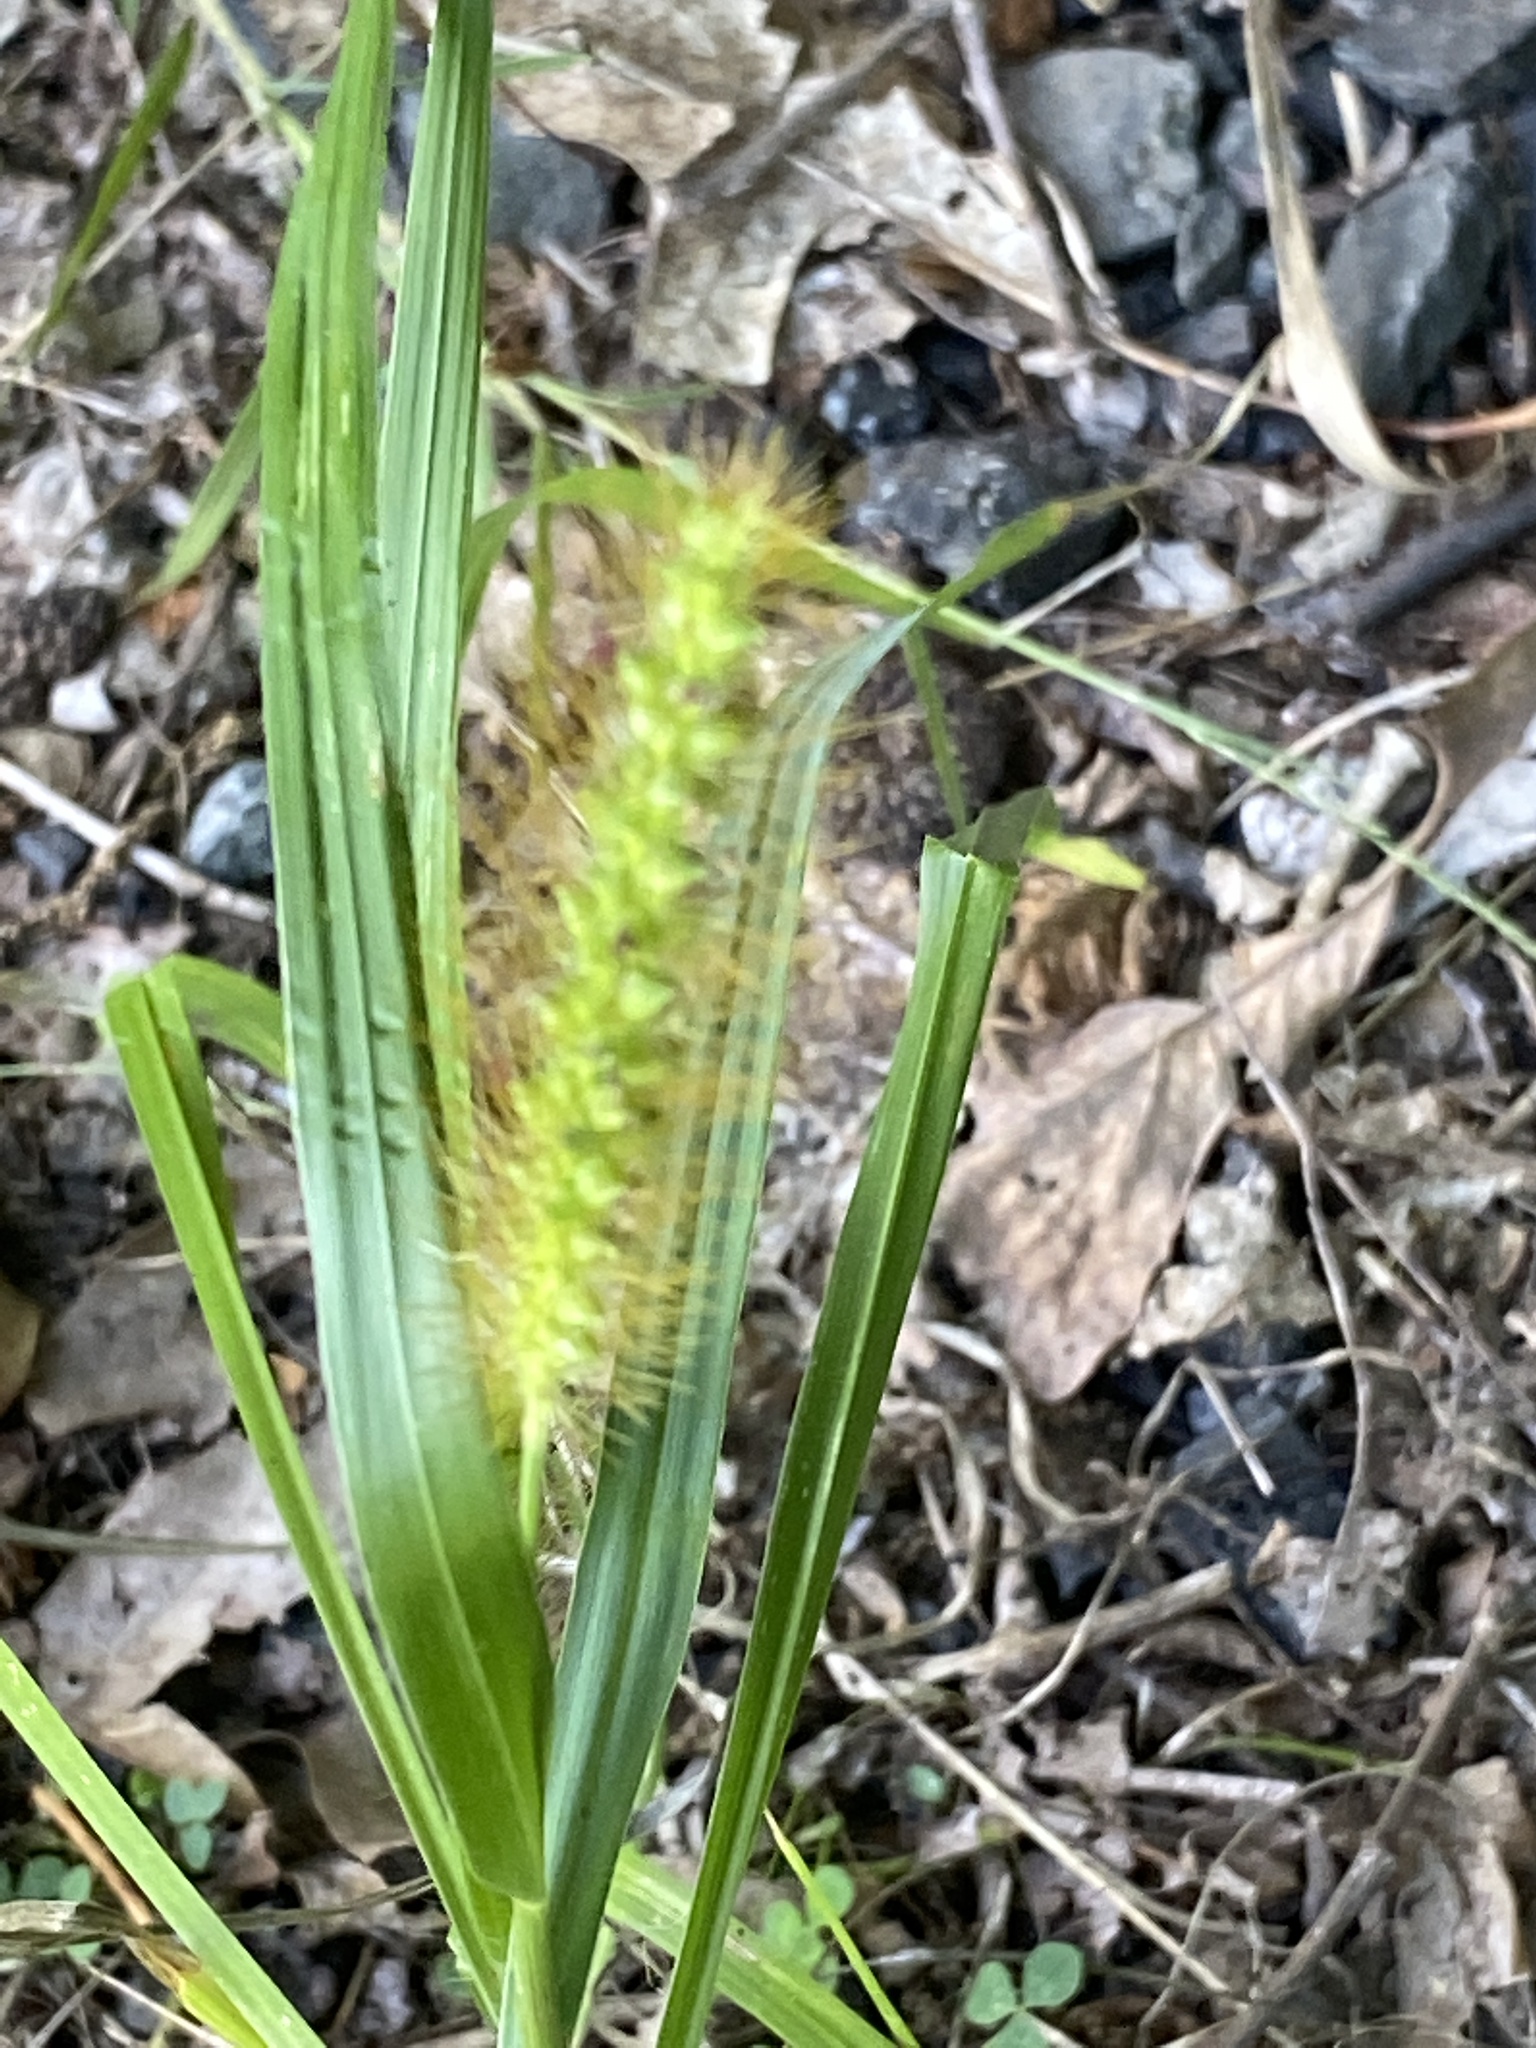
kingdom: Plantae
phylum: Tracheophyta
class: Liliopsida
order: Poales
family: Poaceae
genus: Setaria
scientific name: Setaria pumila
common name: Yellow bristle-grass
